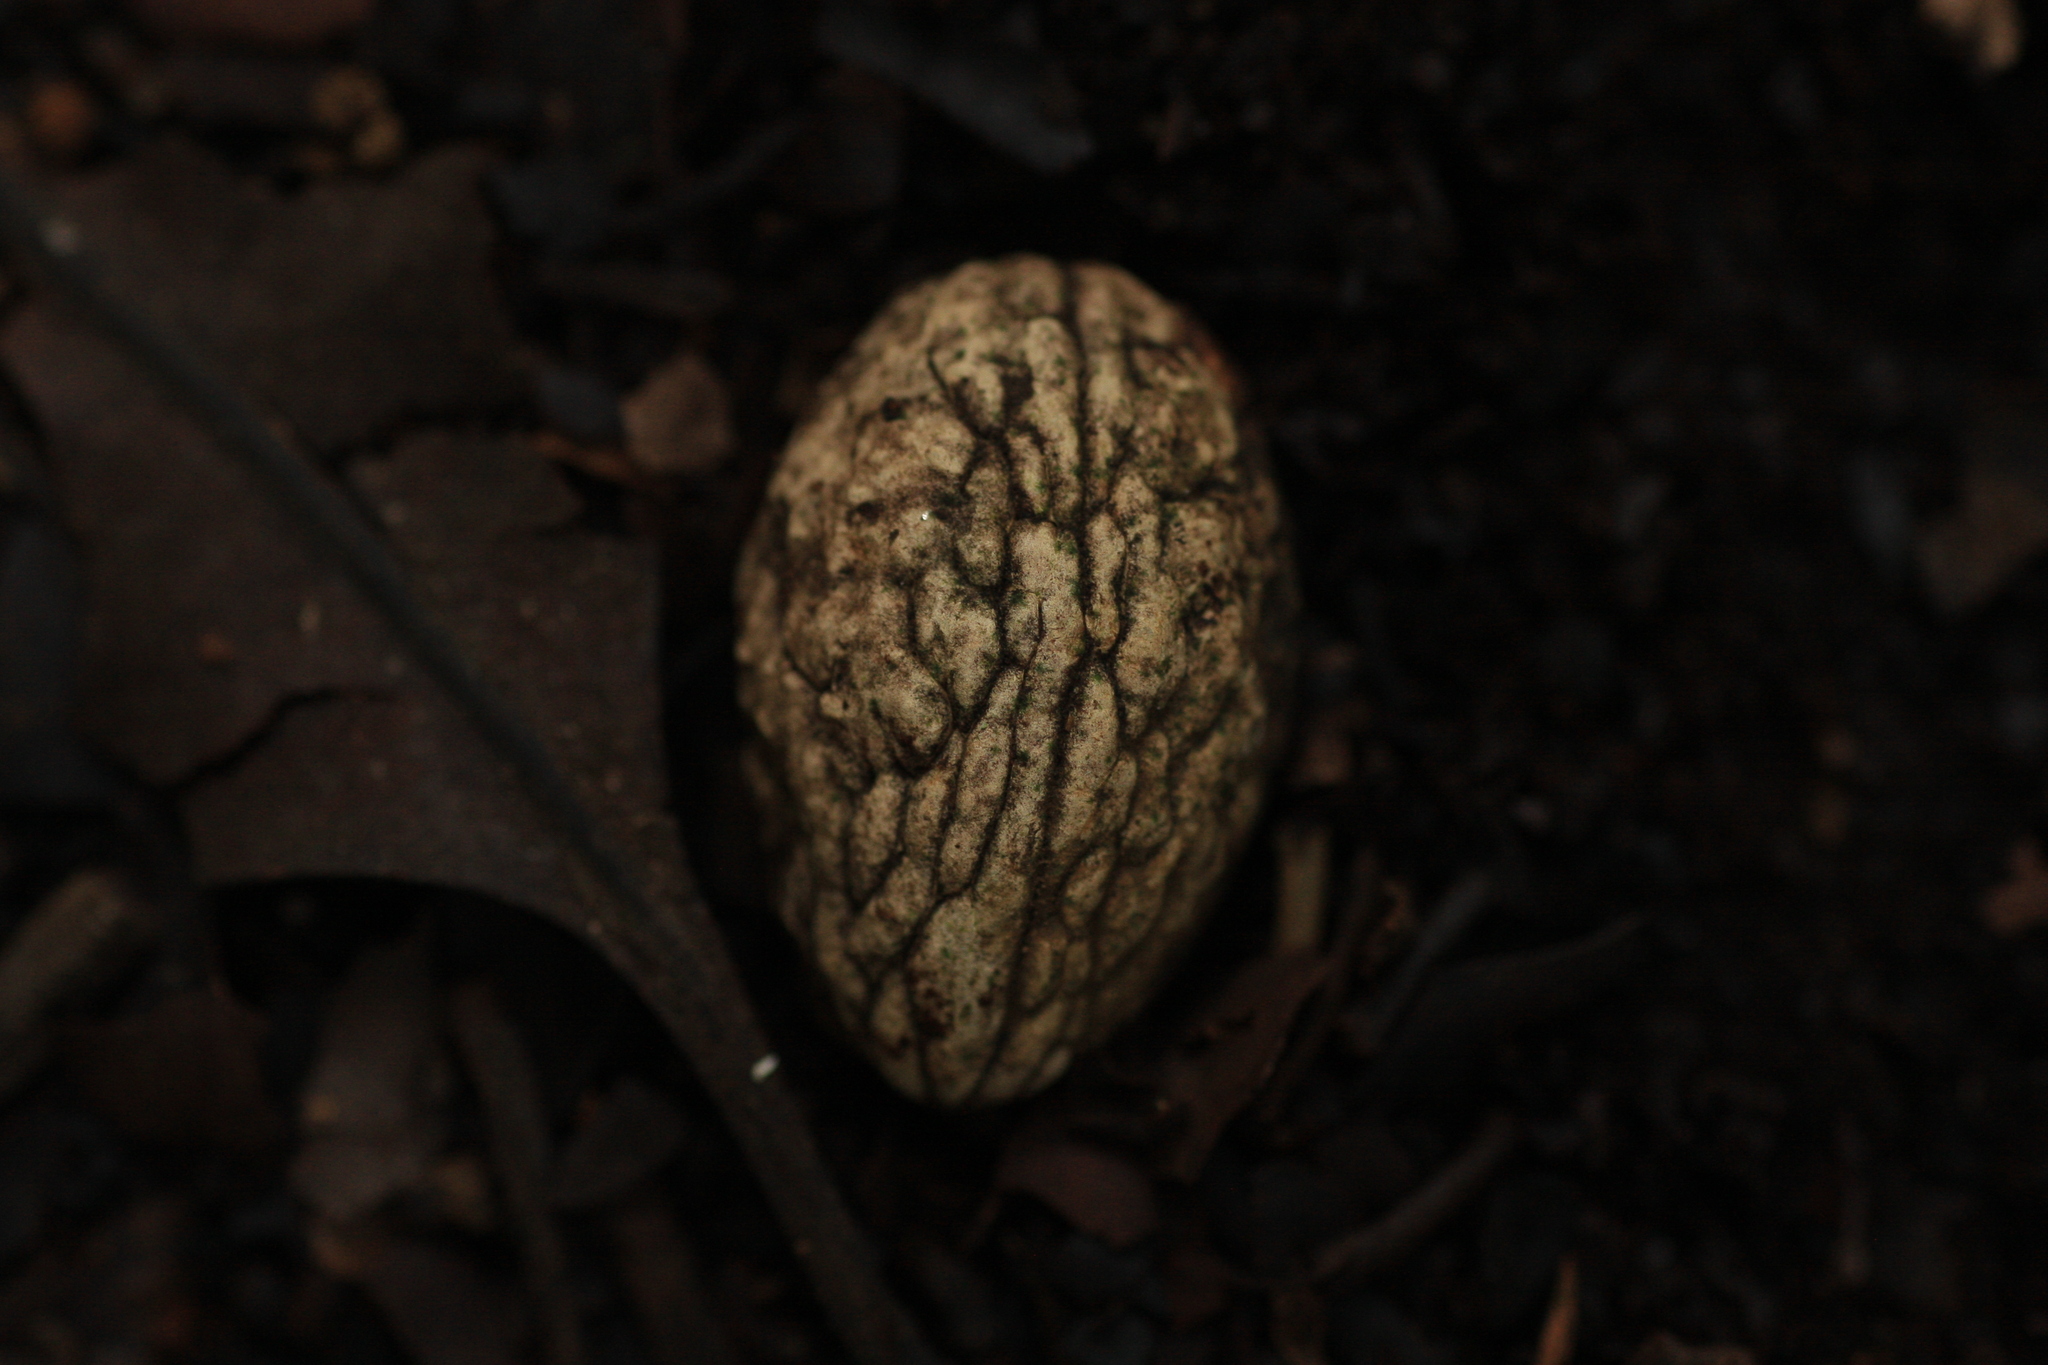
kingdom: Plantae
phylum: Tracheophyta
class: Magnoliopsida
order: Oxalidales
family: Elaeocarpaceae
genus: Elaeocarpus
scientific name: Elaeocarpus serratus
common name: Ceylon-olive
